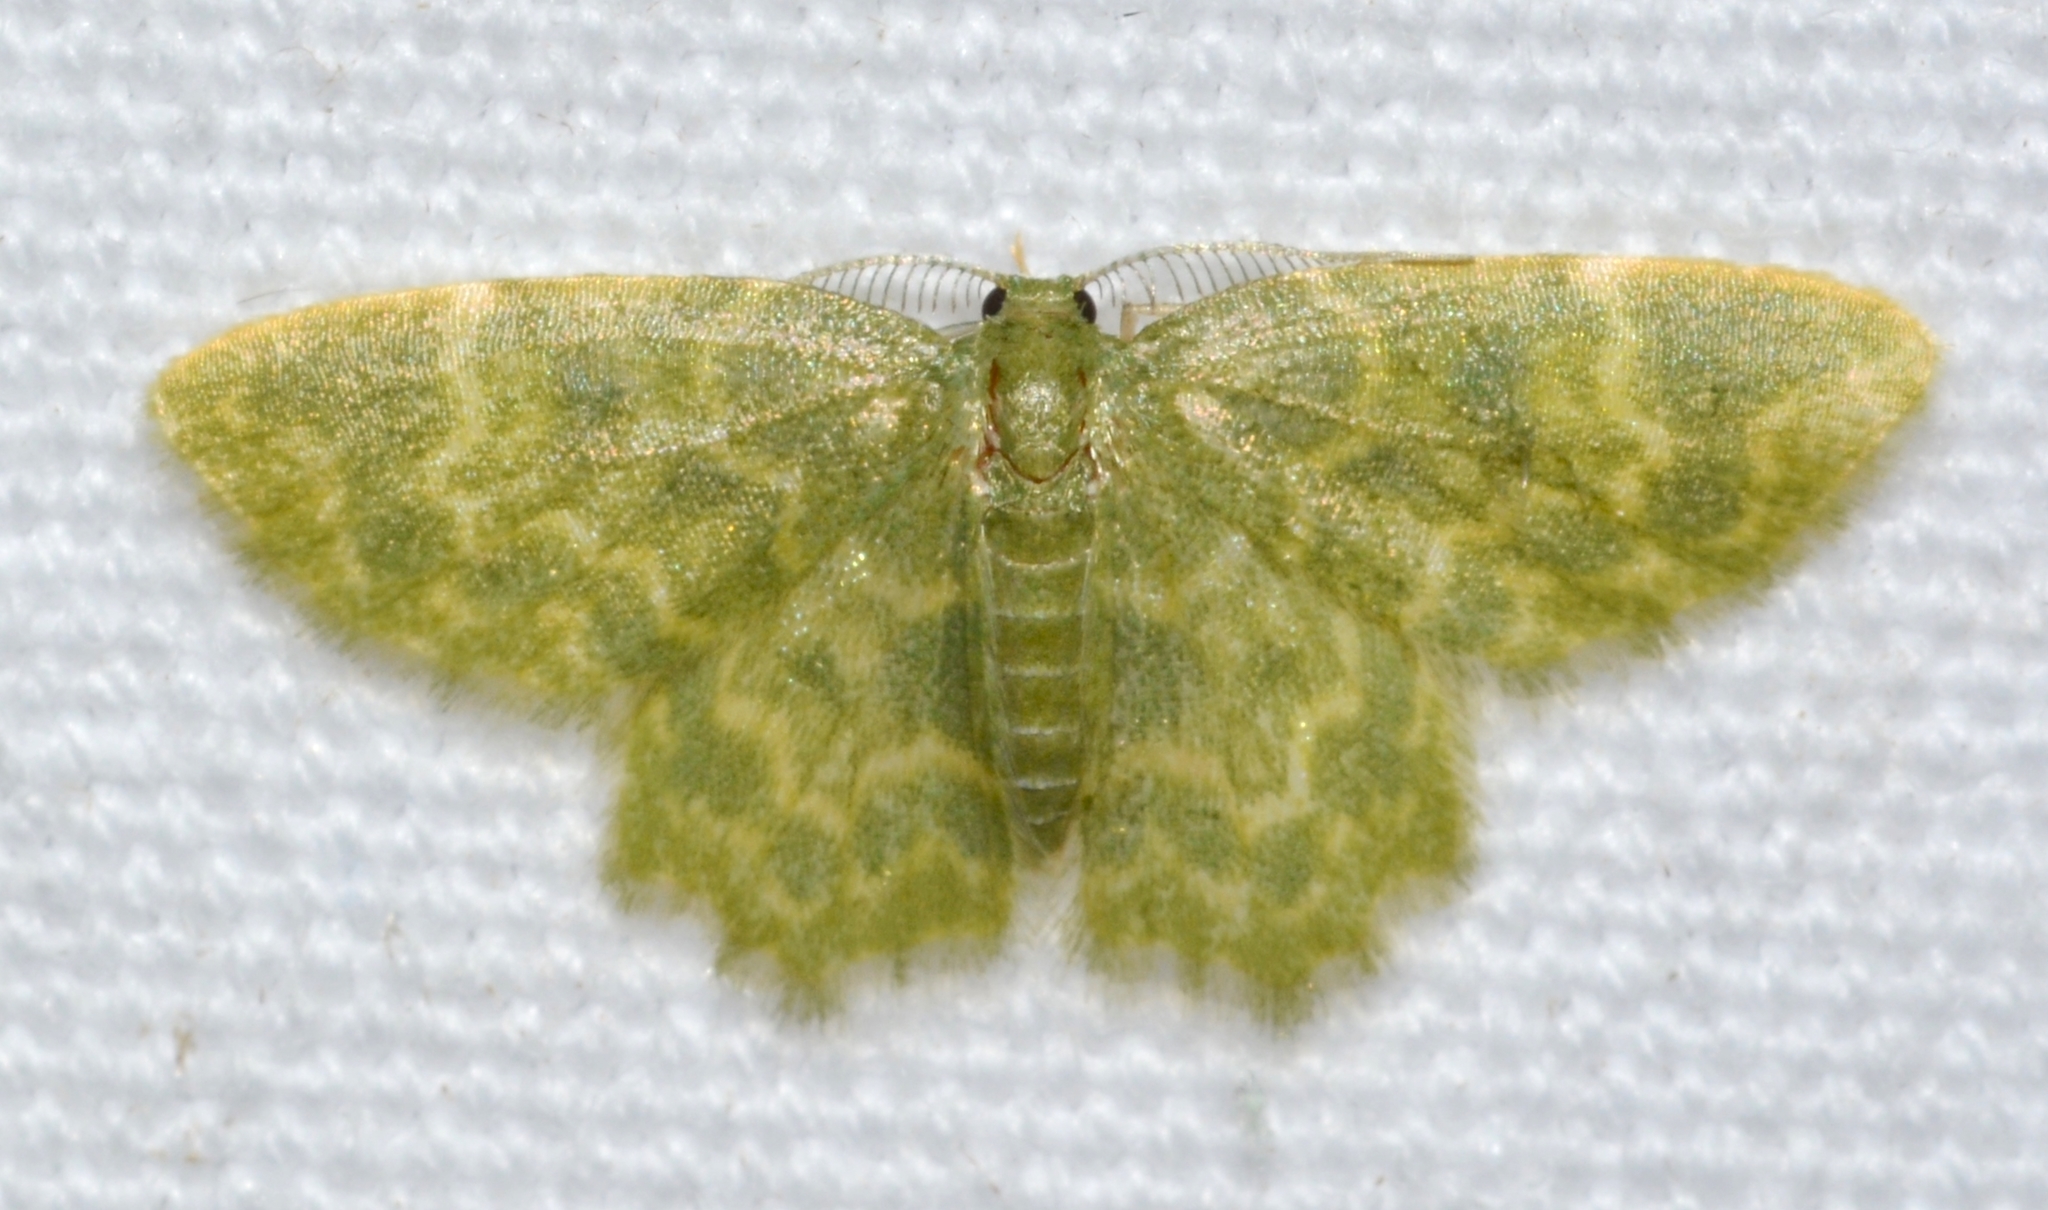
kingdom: Animalia
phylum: Arthropoda
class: Insecta
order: Lepidoptera
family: Geometridae
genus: Pachycopsis
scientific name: Pachycopsis malina
